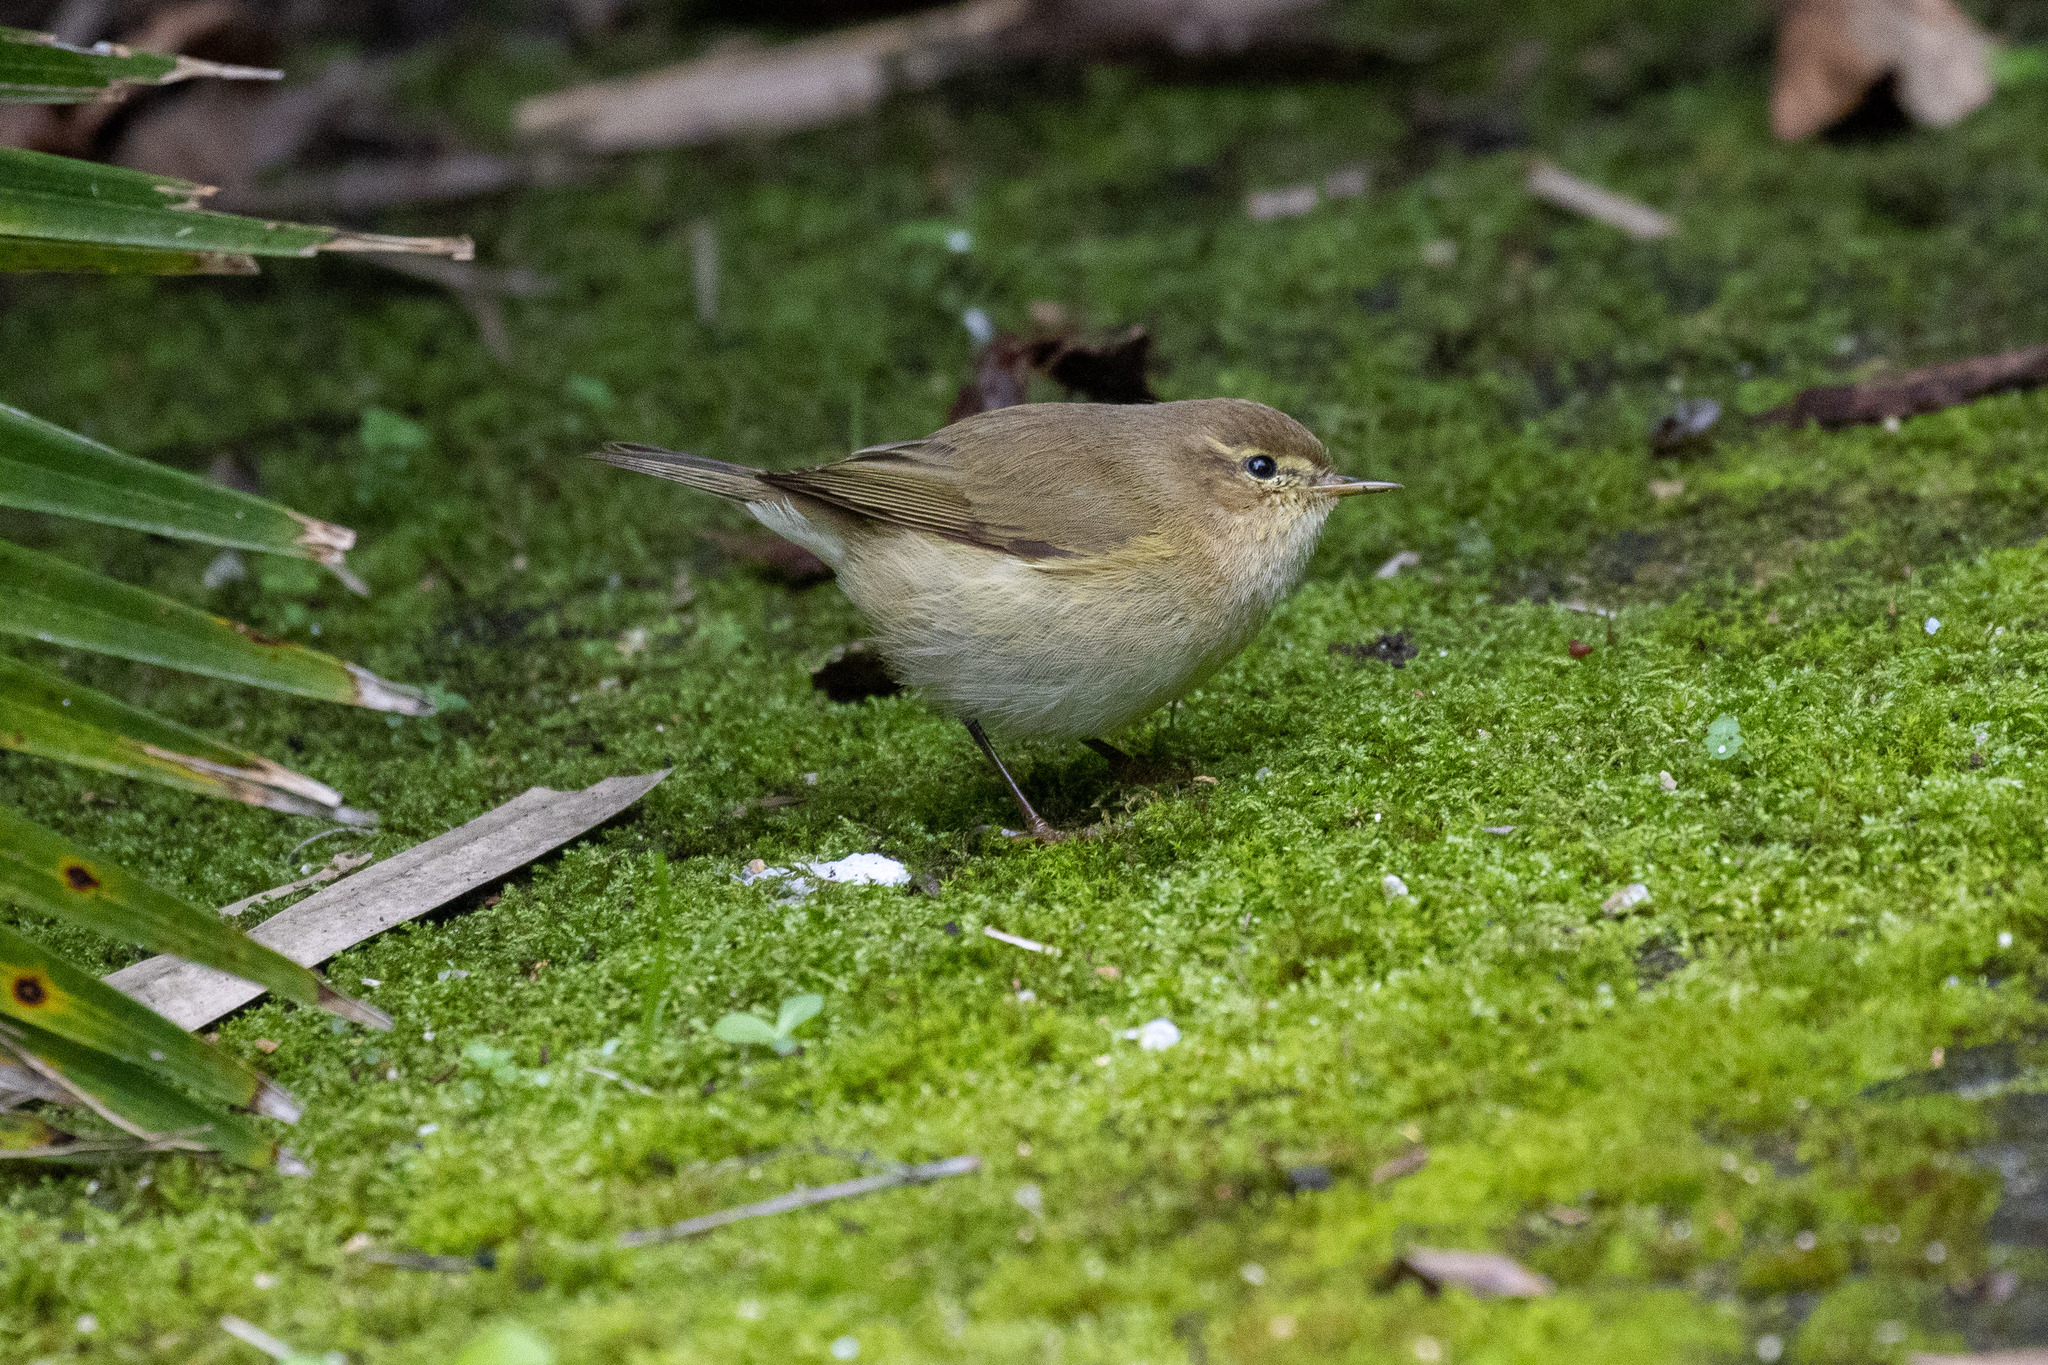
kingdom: Animalia
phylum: Chordata
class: Aves
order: Passeriformes
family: Phylloscopidae
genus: Phylloscopus
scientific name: Phylloscopus collybita
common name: Common chiffchaff
